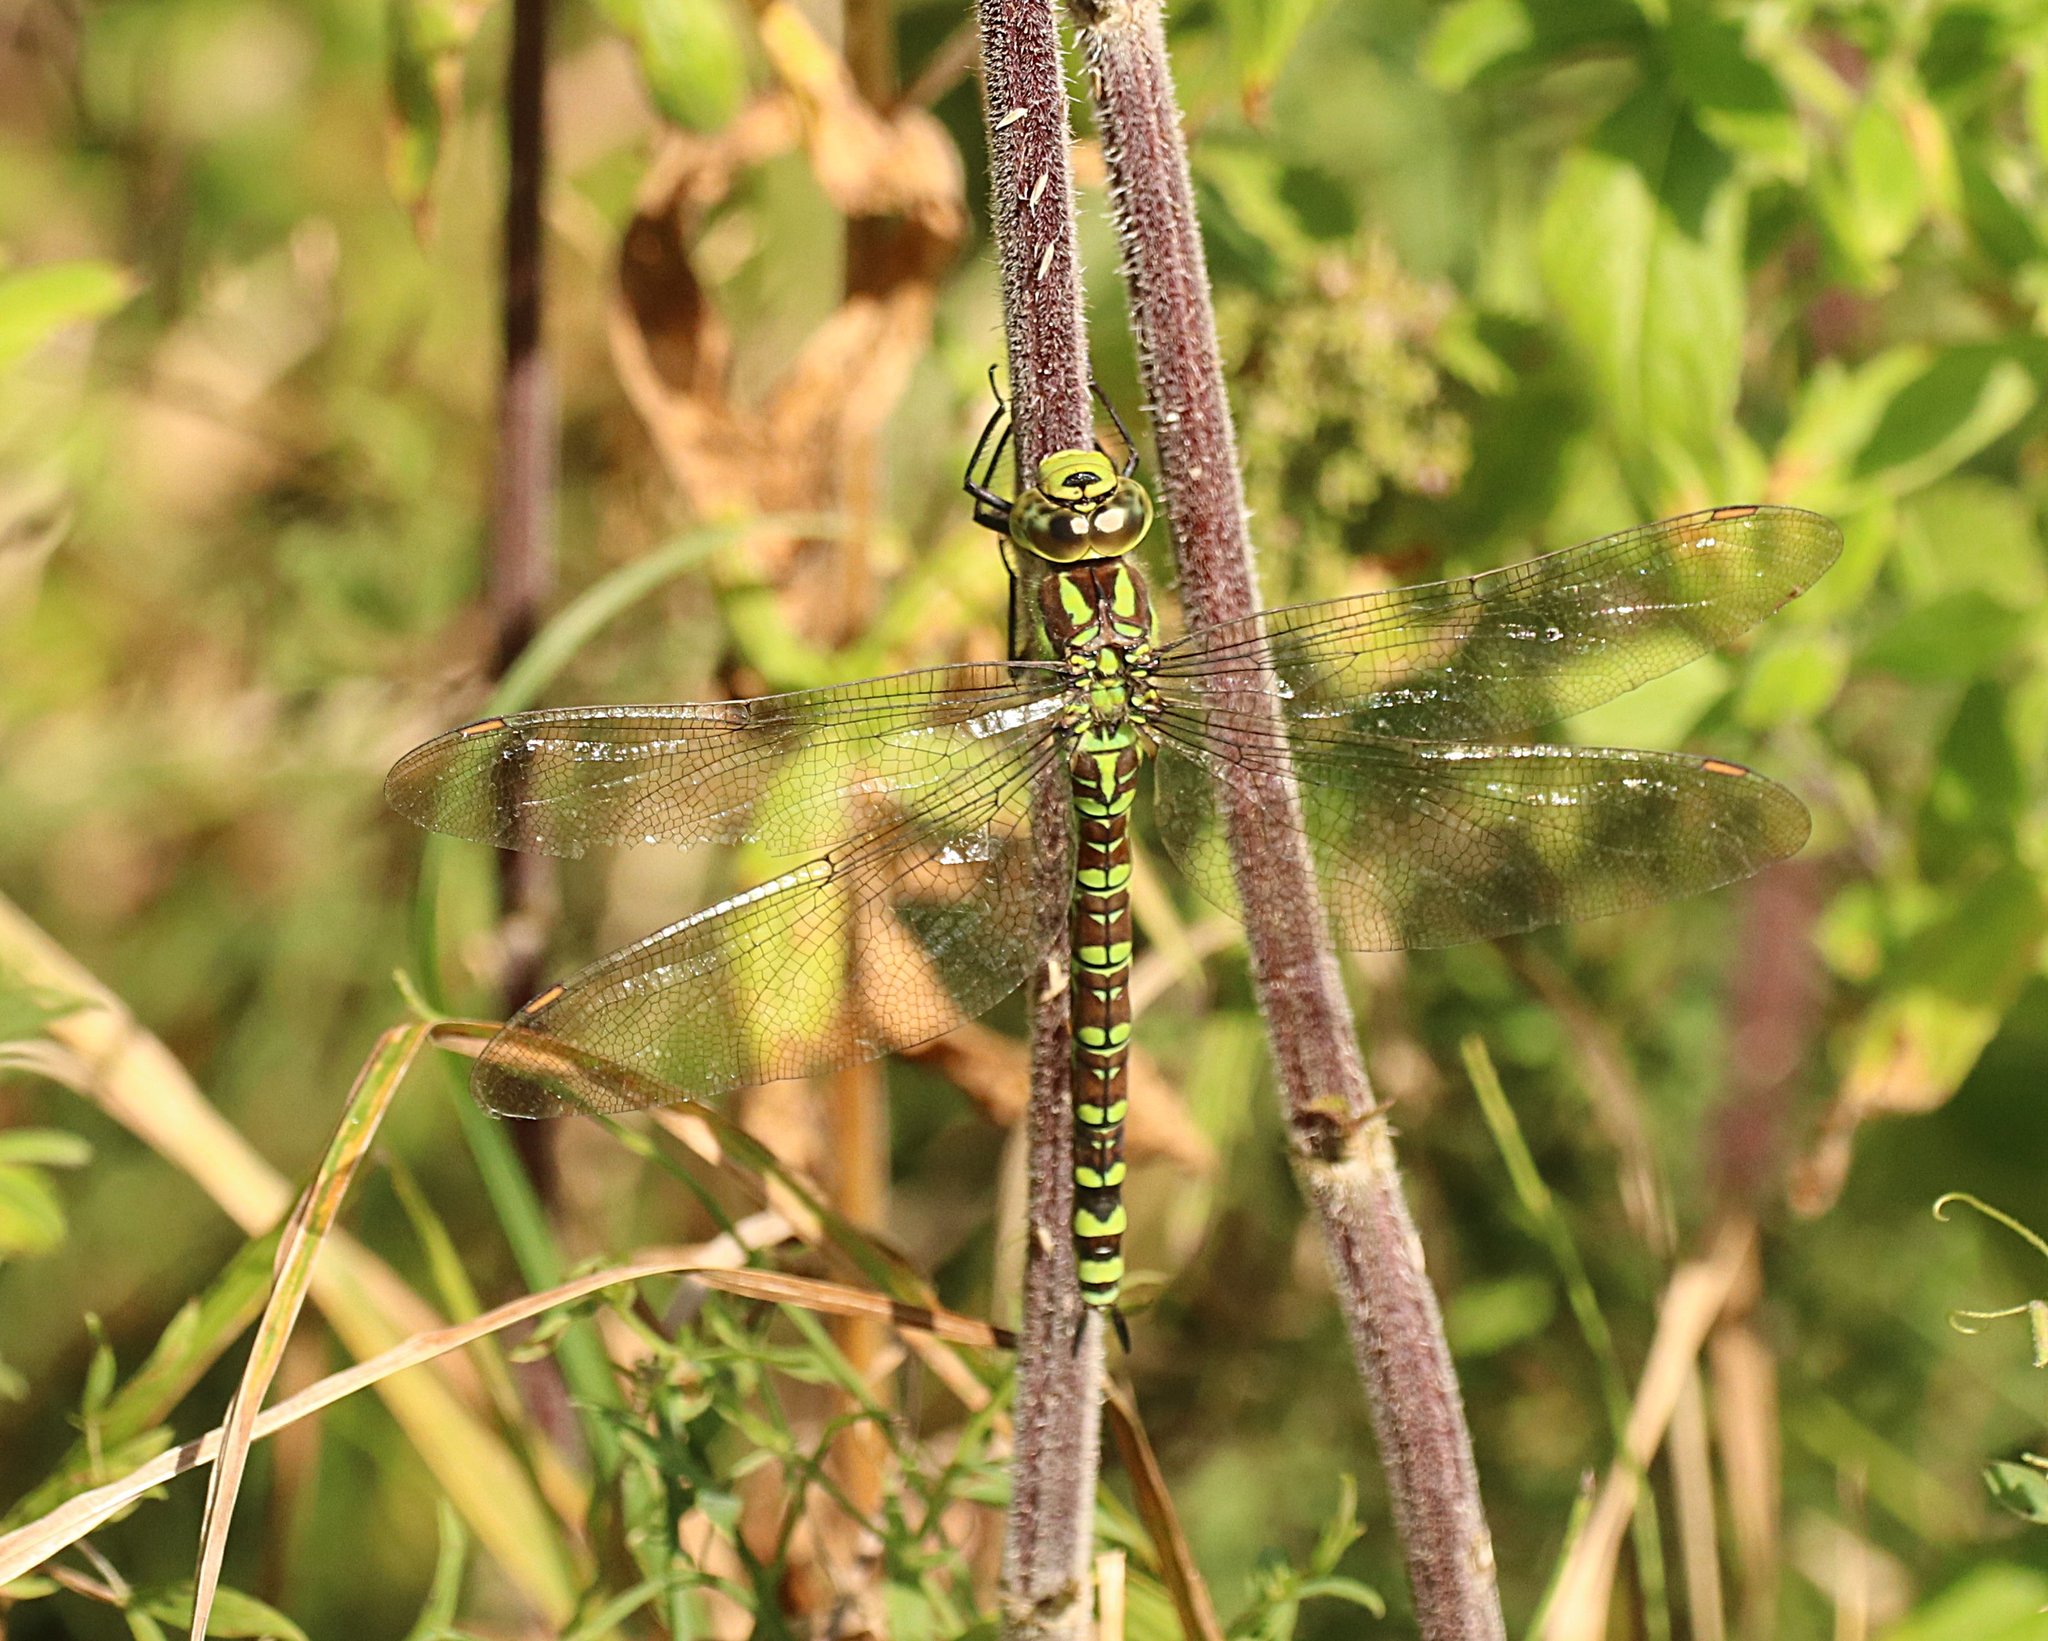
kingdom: Animalia
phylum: Arthropoda
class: Insecta
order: Odonata
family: Aeshnidae
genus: Aeshna
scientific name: Aeshna cyanea
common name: Southern hawker
